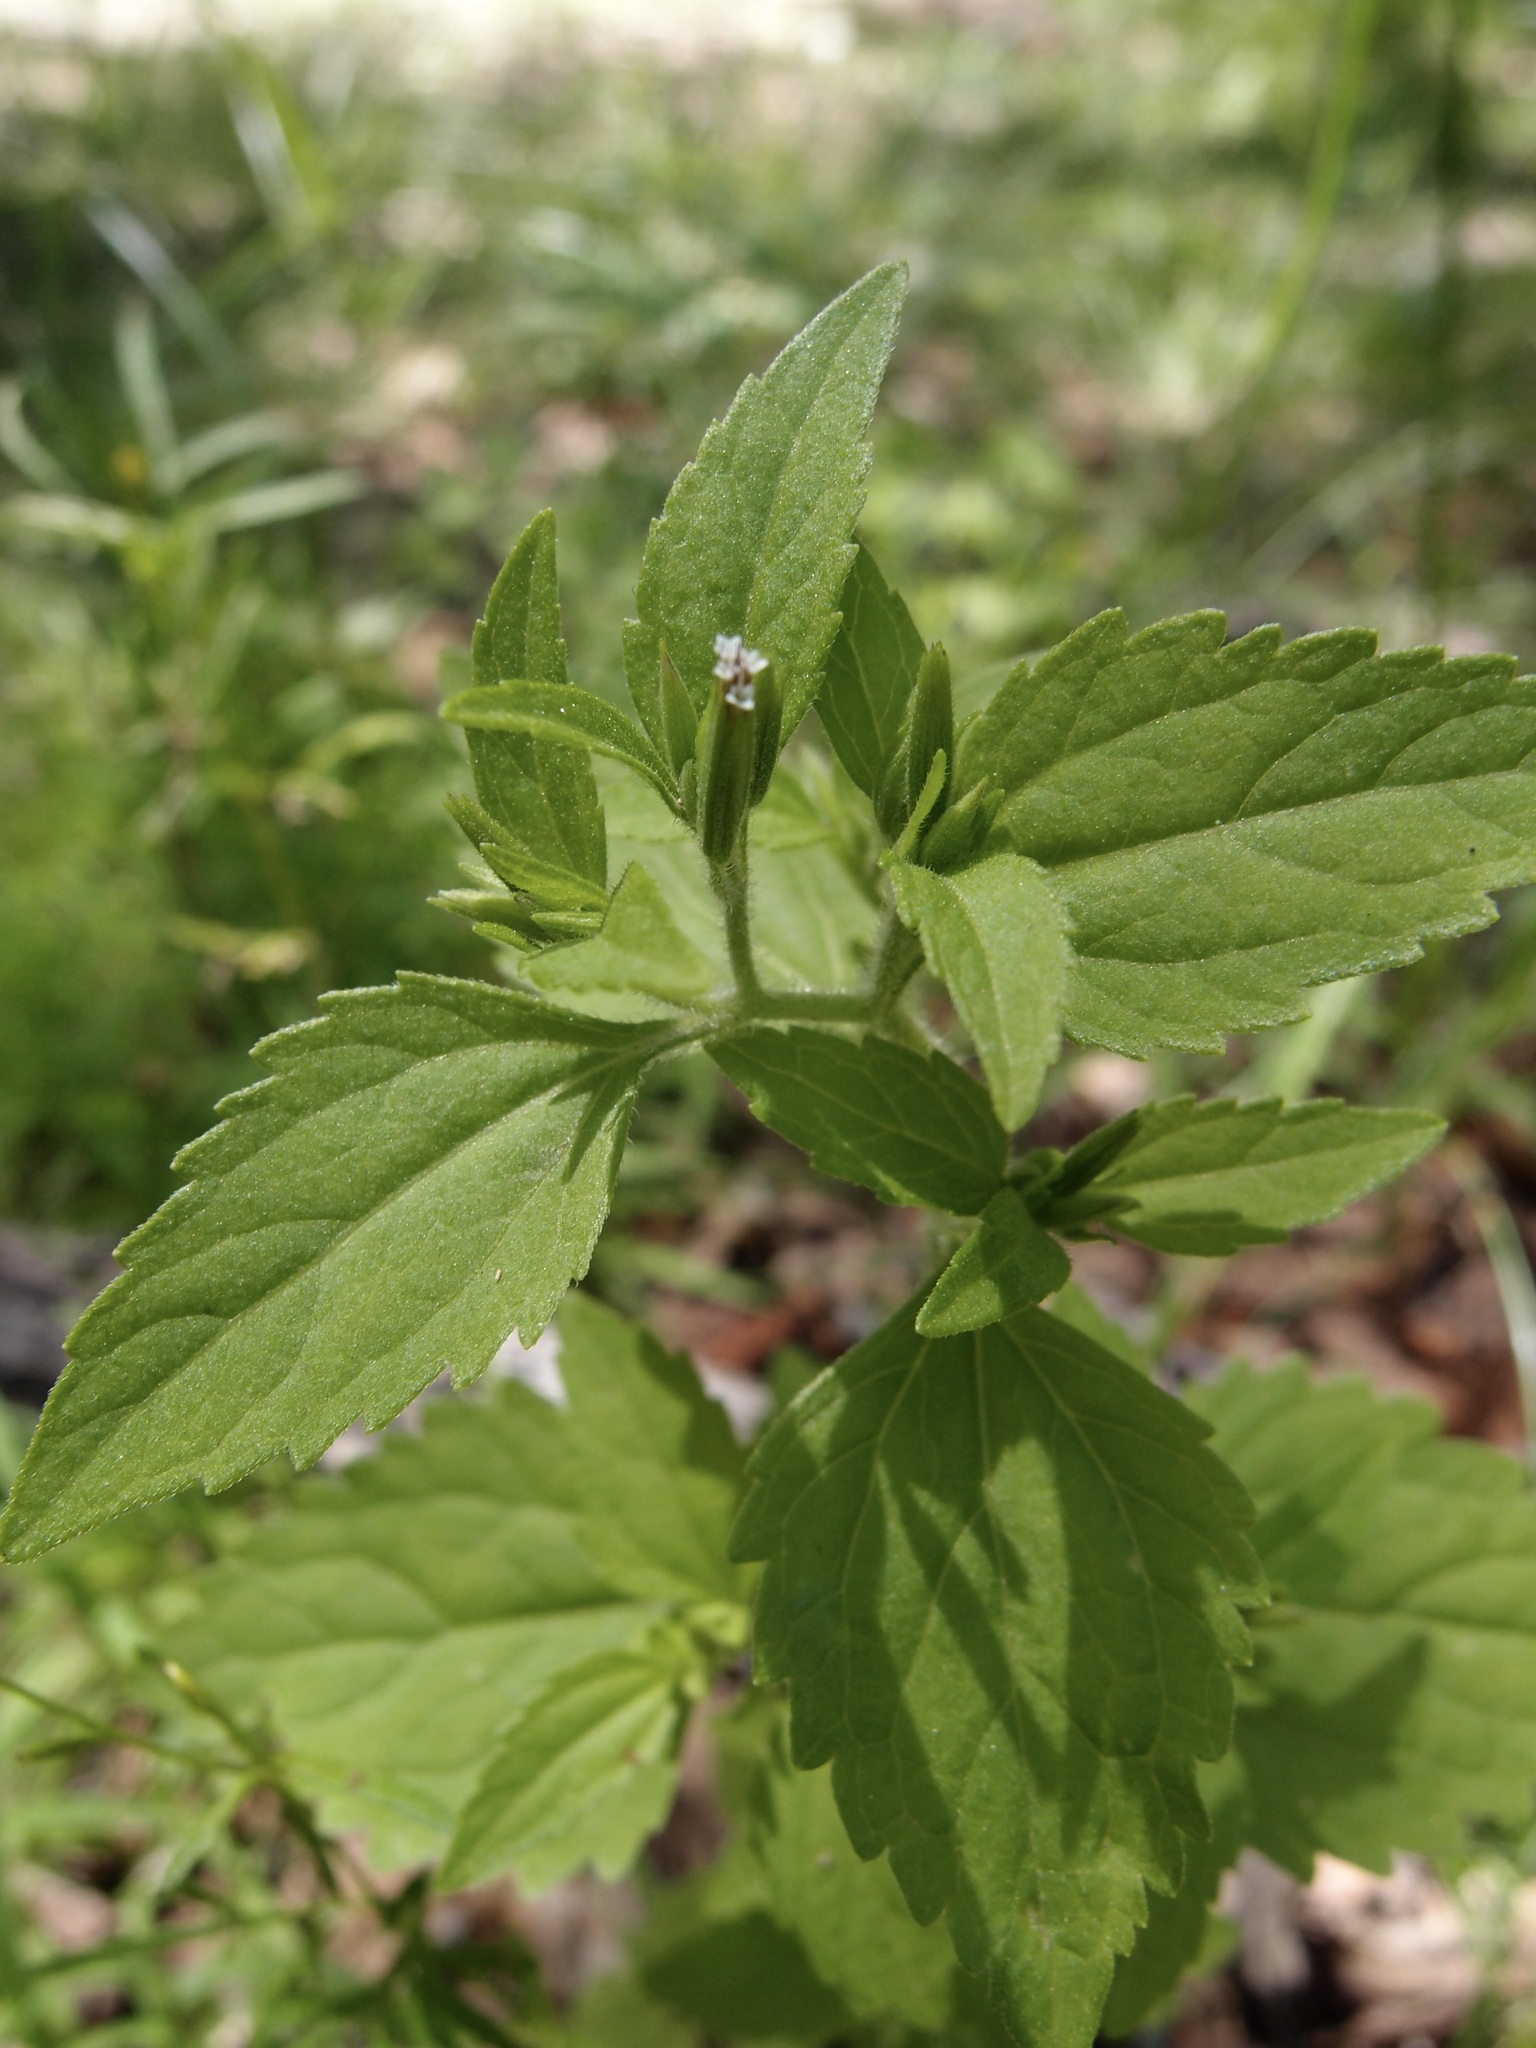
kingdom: Plantae
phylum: Tracheophyta
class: Magnoliopsida
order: Asterales
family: Asteraceae
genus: Stevia
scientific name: Stevia micrantha
